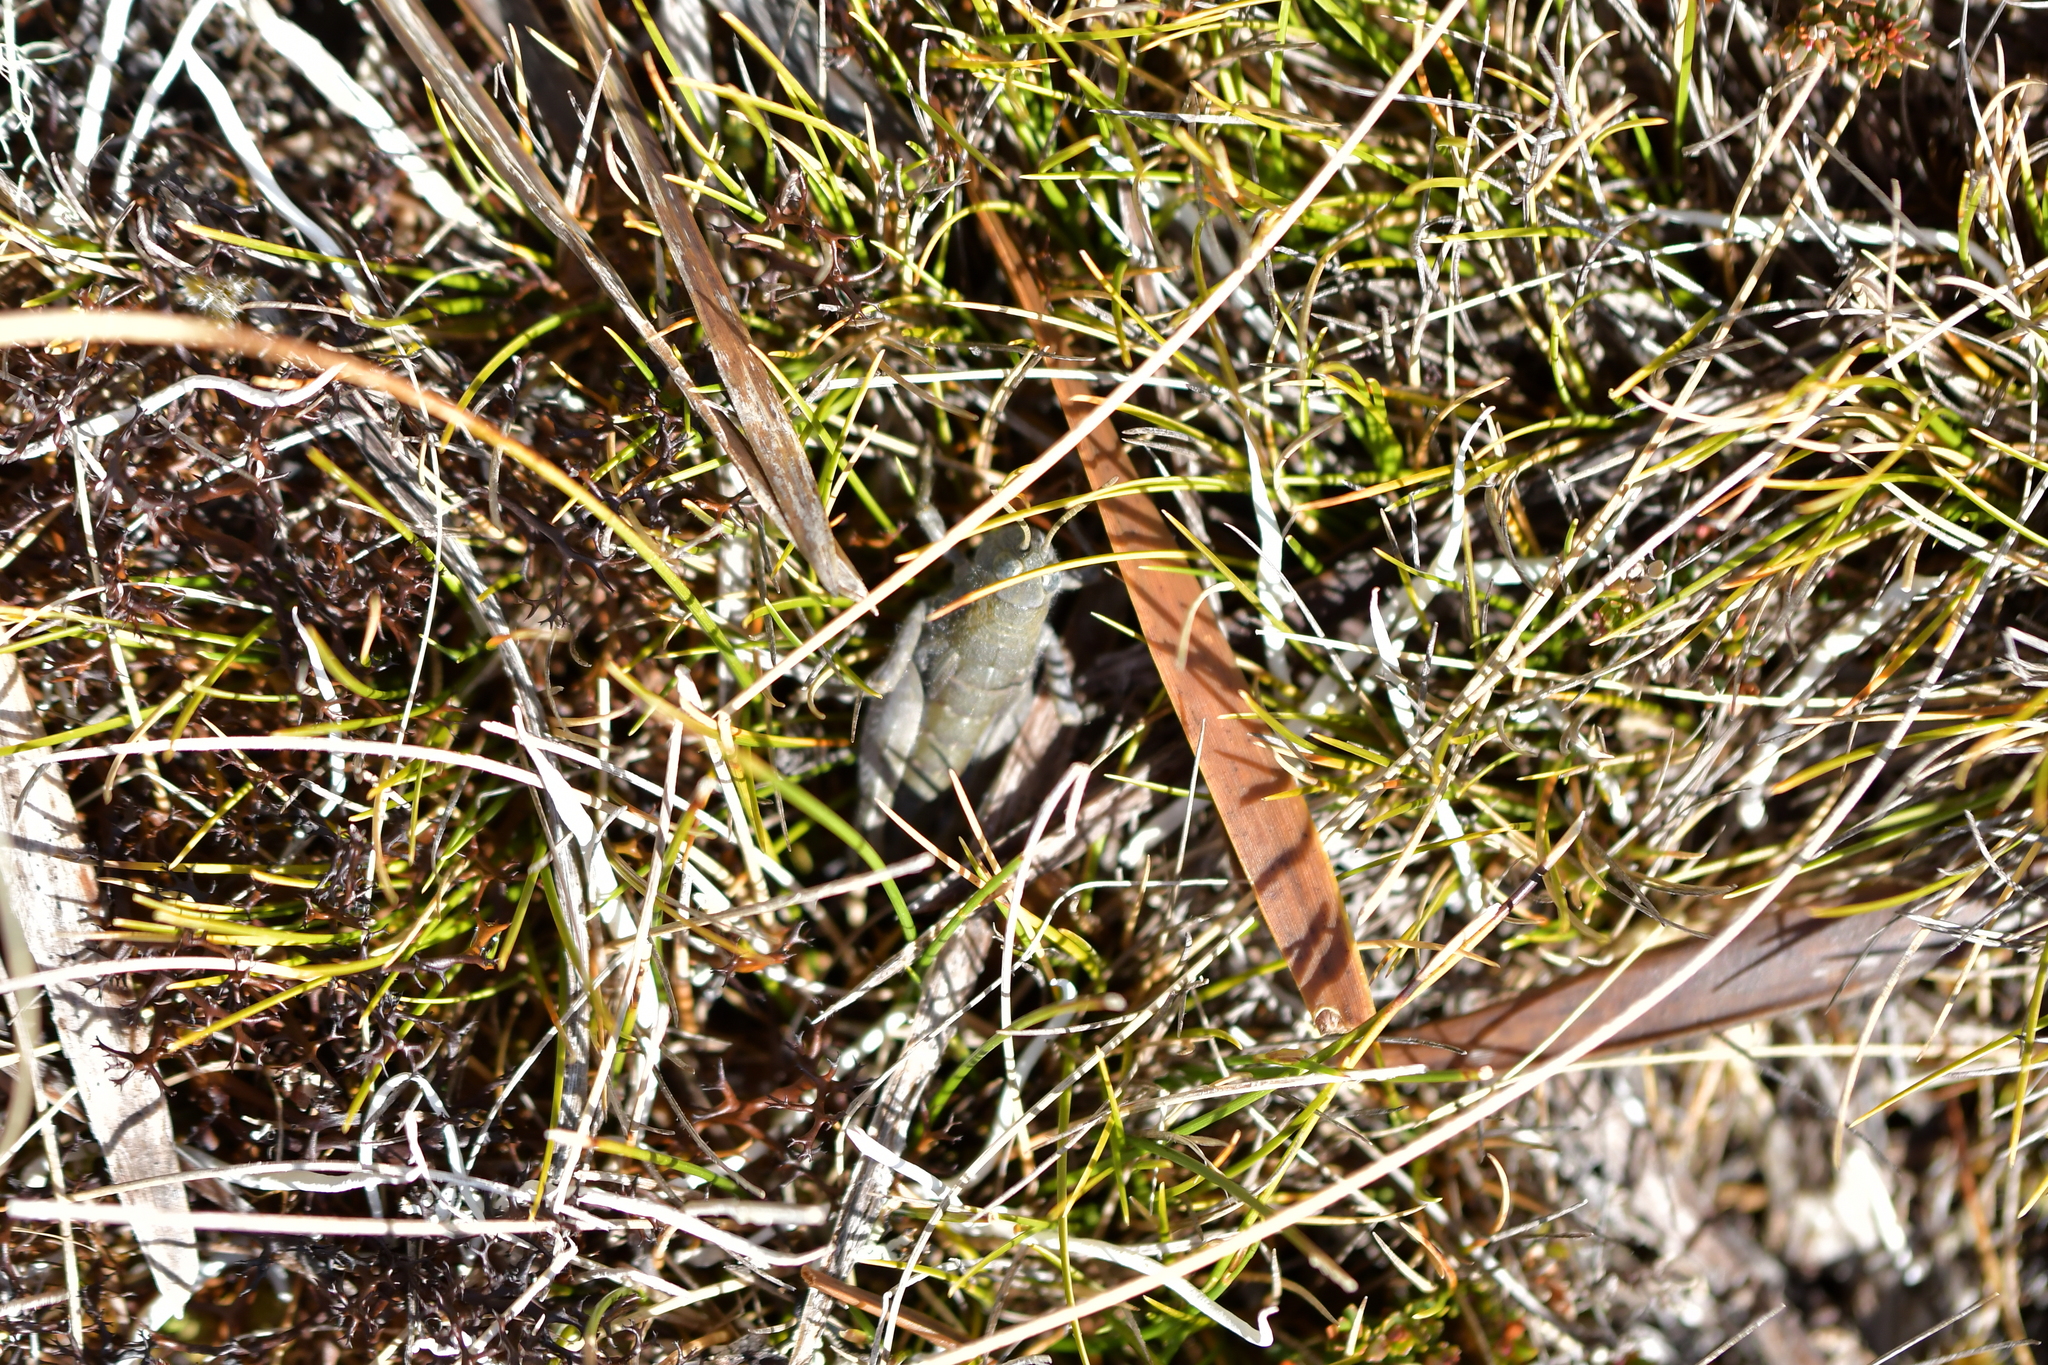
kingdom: Animalia
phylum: Arthropoda
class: Insecta
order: Orthoptera
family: Acrididae
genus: Sigaus
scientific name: Sigaus
